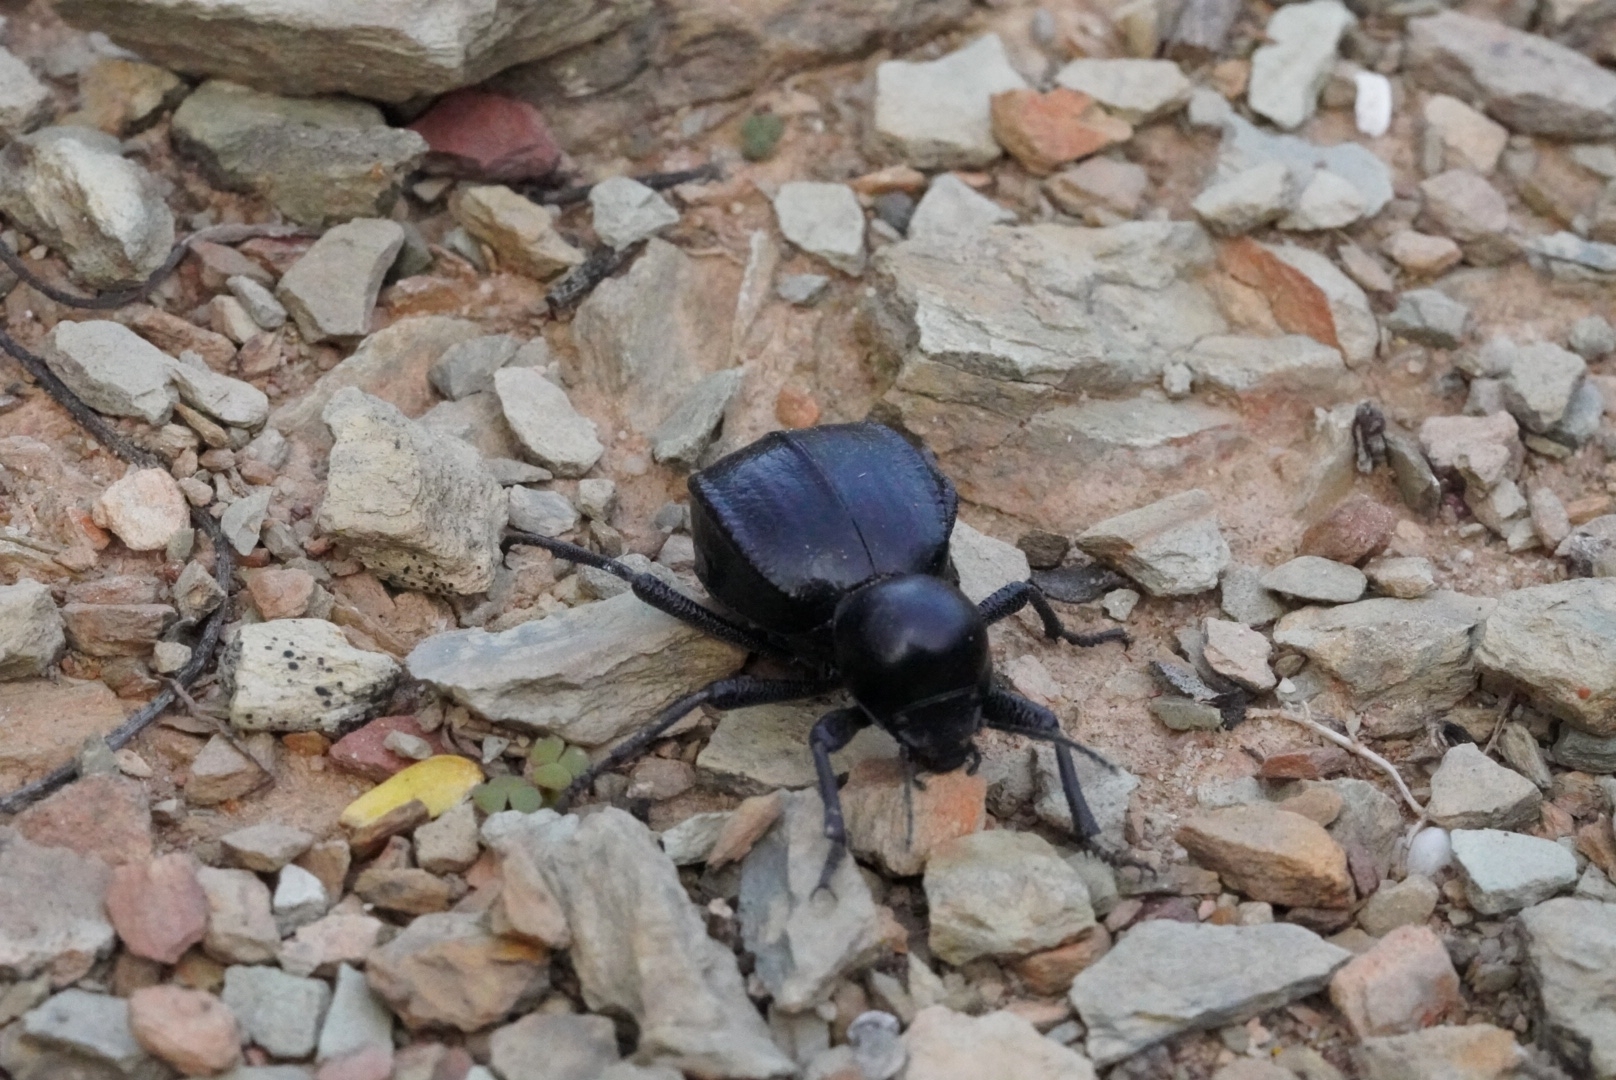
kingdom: Animalia
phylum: Arthropoda
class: Insecta
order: Coleoptera
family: Tenebrionidae
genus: Moluris
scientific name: Moluris gibba
